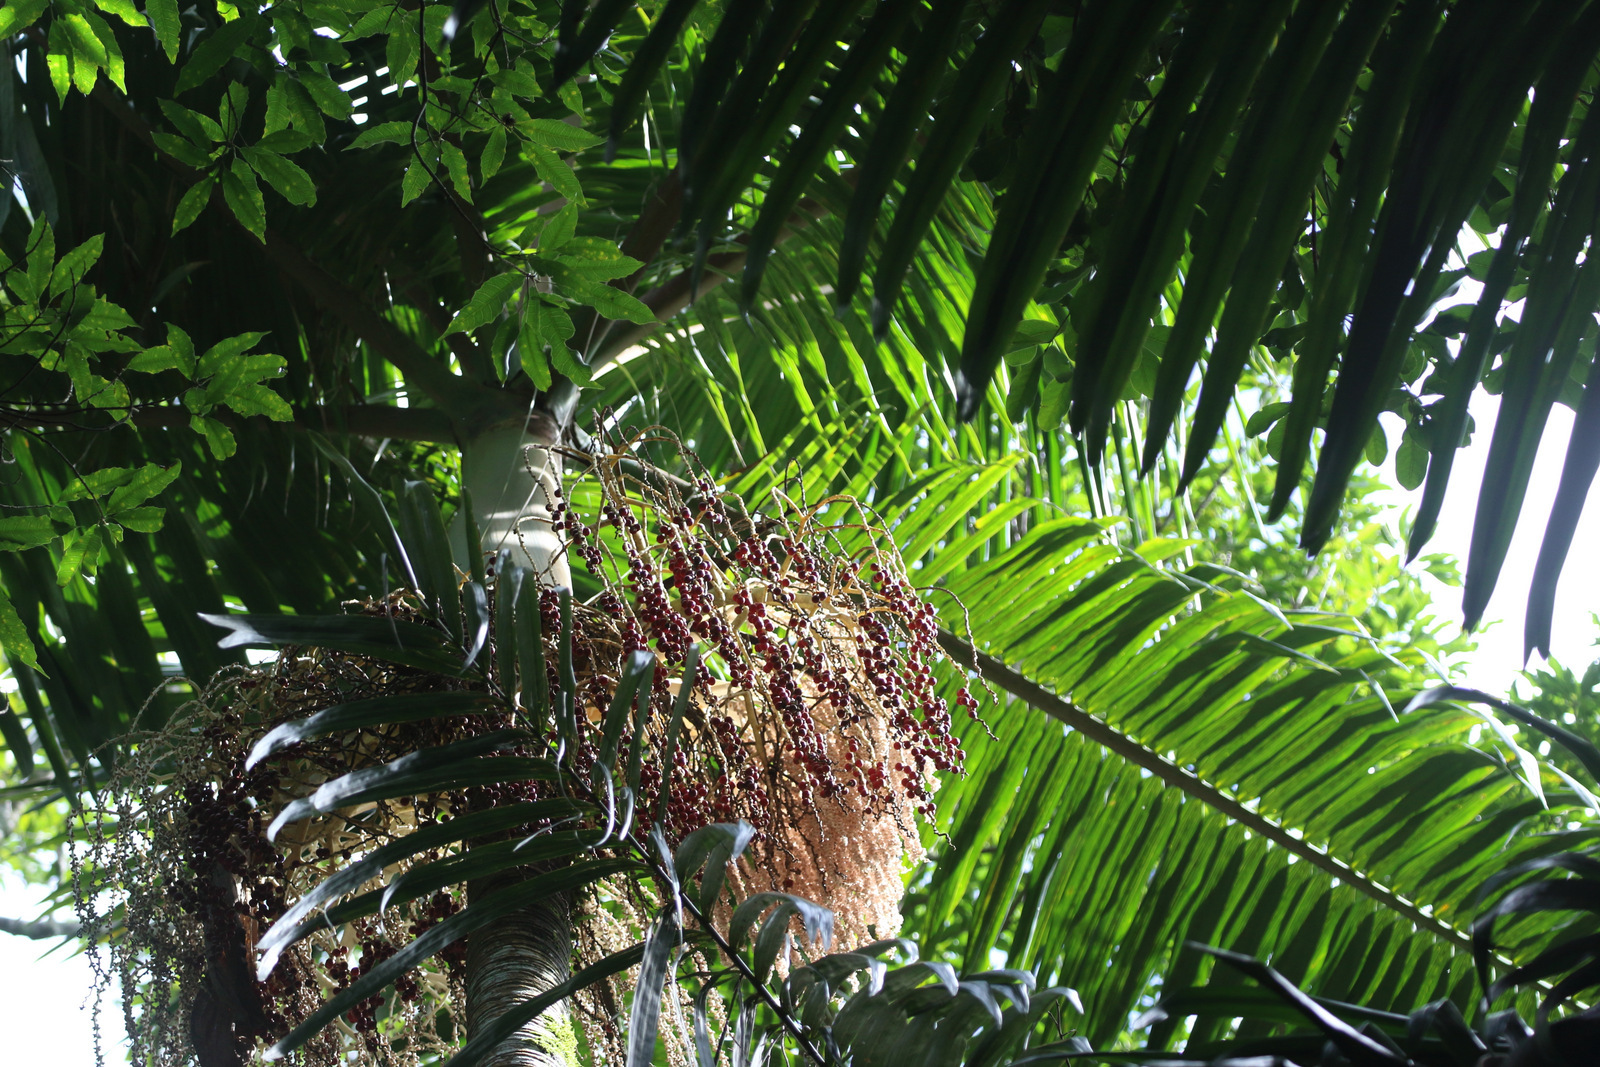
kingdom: Plantae
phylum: Tracheophyta
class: Liliopsida
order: Arecales
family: Arecaceae
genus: Archontophoenix
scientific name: Archontophoenix cunninghamiana
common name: Piccabeen bangalow palm
